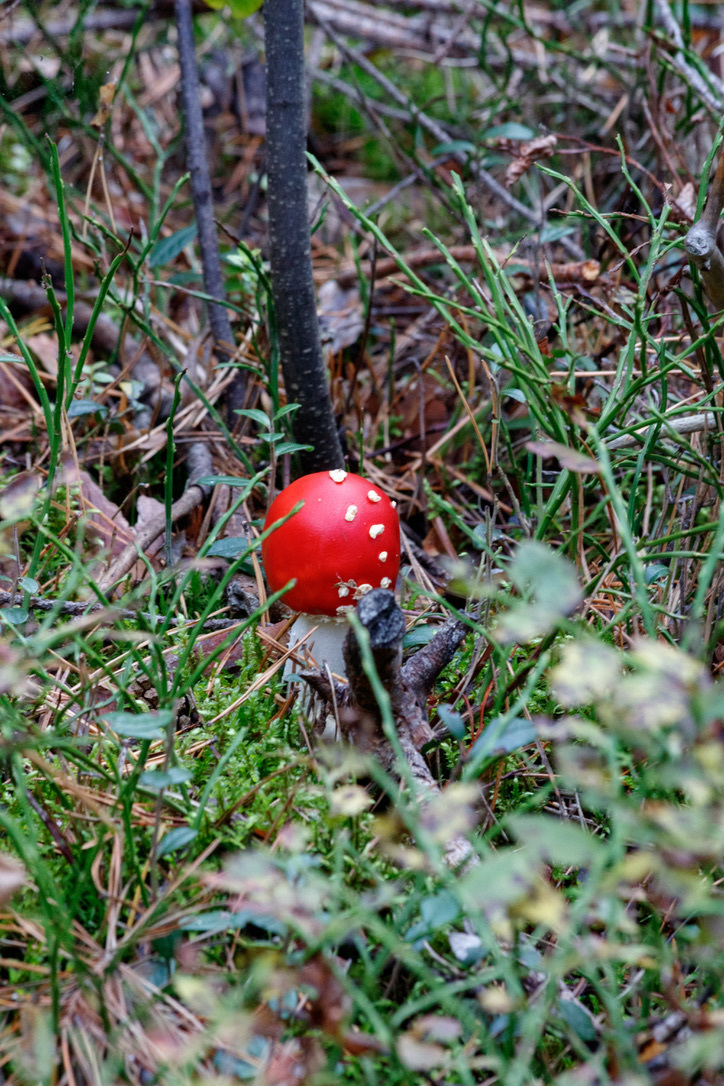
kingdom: Fungi
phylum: Basidiomycota
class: Agaricomycetes
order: Agaricales
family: Amanitaceae
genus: Amanita
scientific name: Amanita muscaria
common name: Fly agaric
